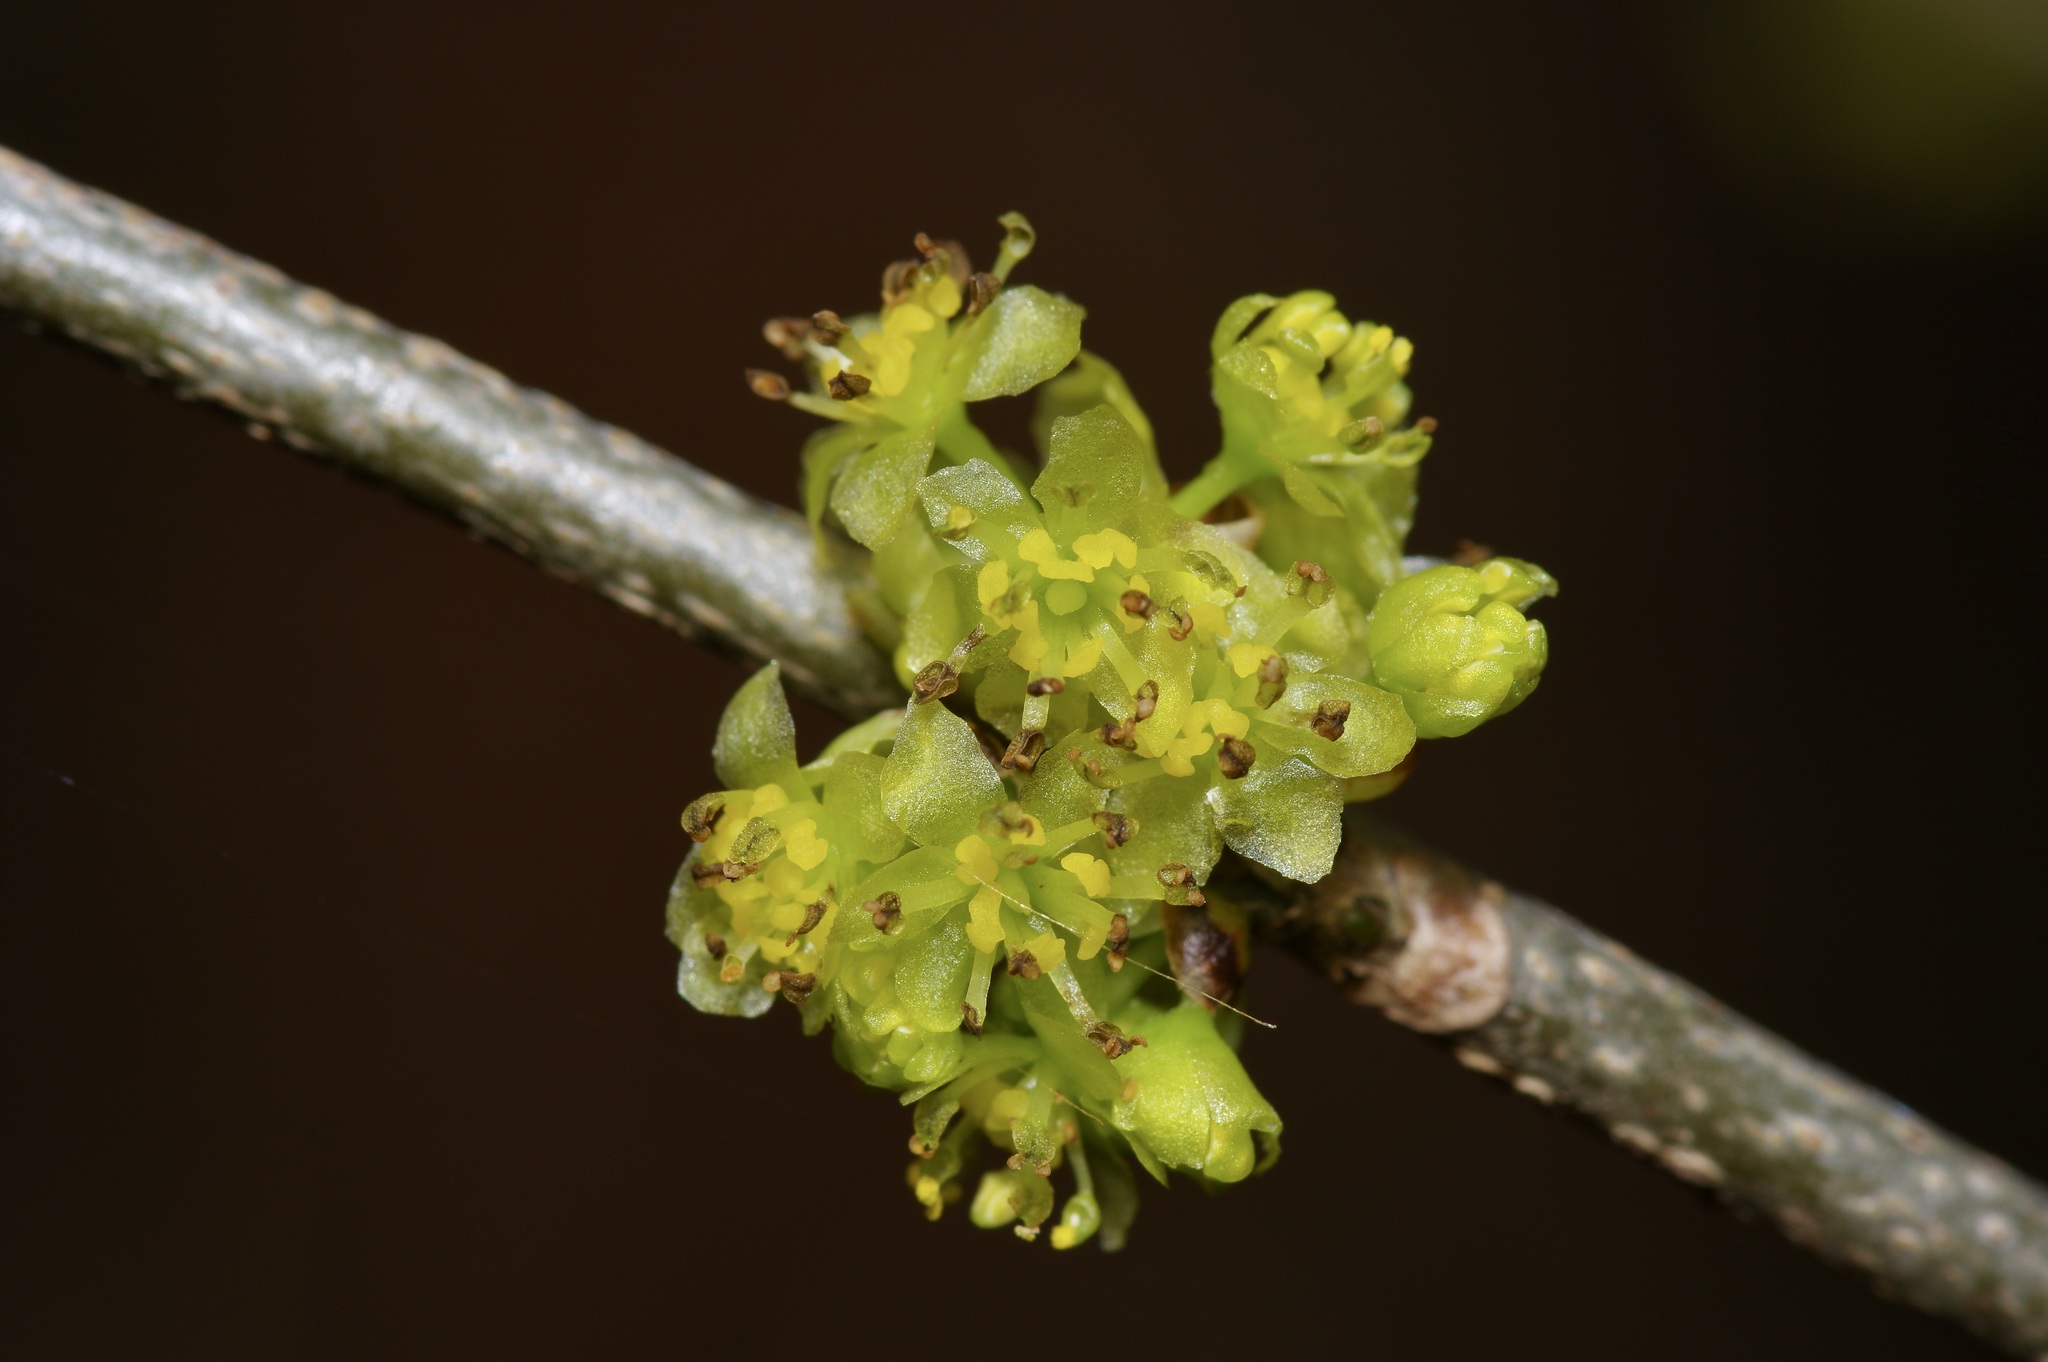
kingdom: Plantae
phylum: Tracheophyta
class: Magnoliopsida
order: Laurales
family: Lauraceae
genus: Lindera
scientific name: Lindera benzoin
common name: Spicebush
